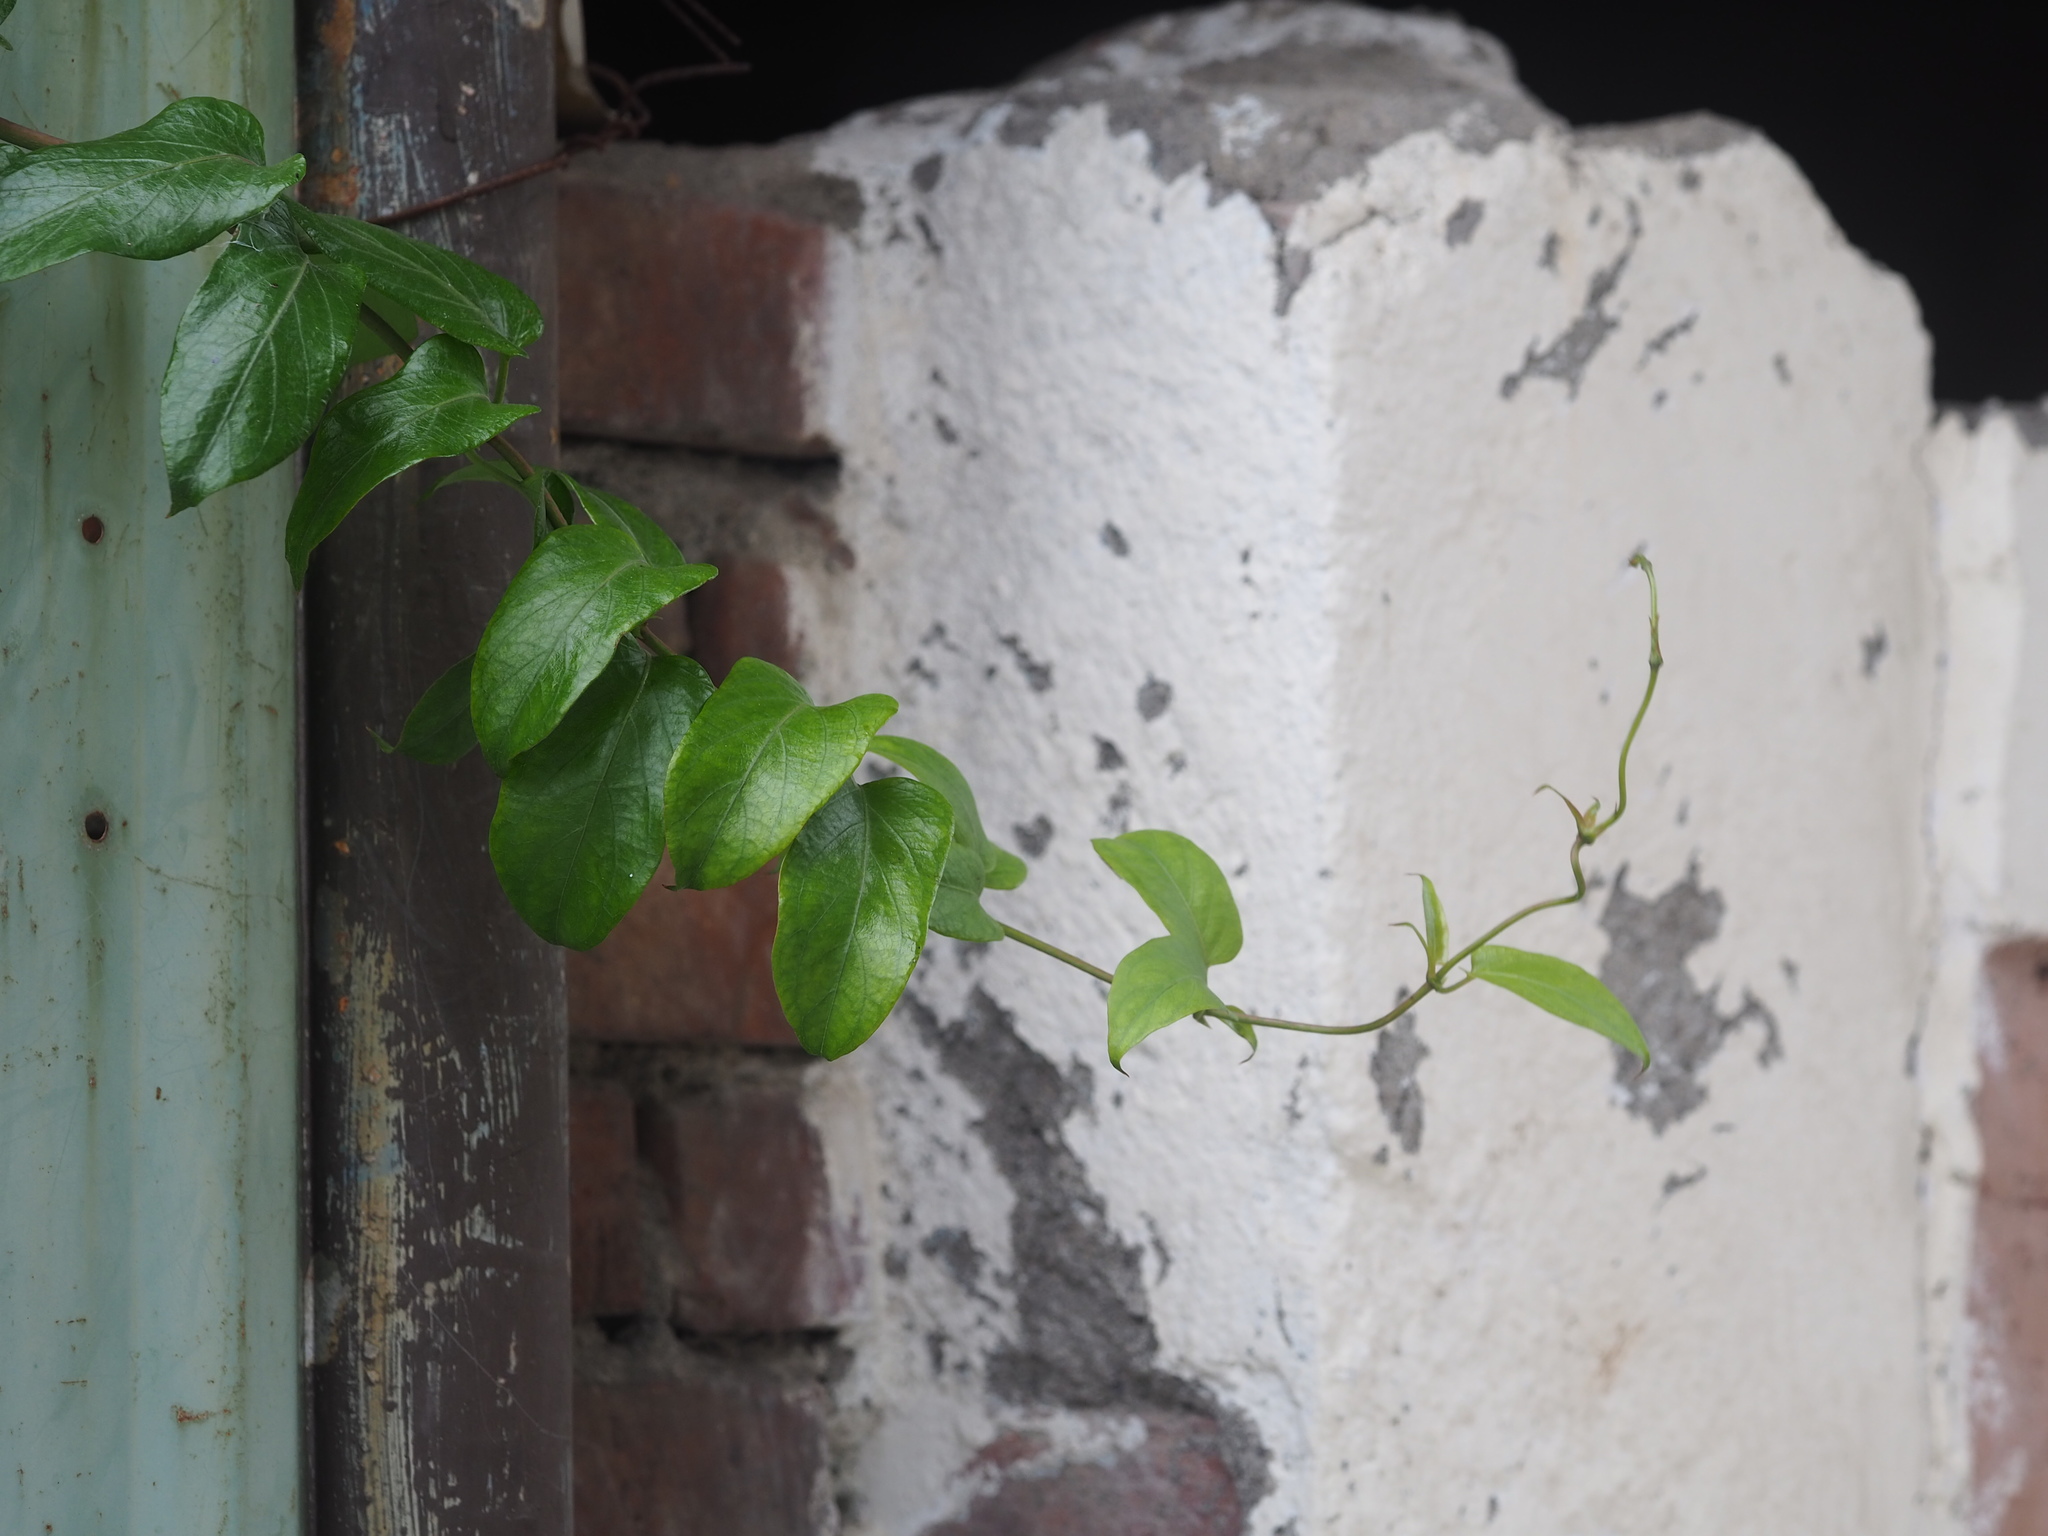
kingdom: Plantae
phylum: Tracheophyta
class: Magnoliopsida
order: Gentianales
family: Rubiaceae
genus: Paederia
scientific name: Paederia foetida
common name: Stinkvine
